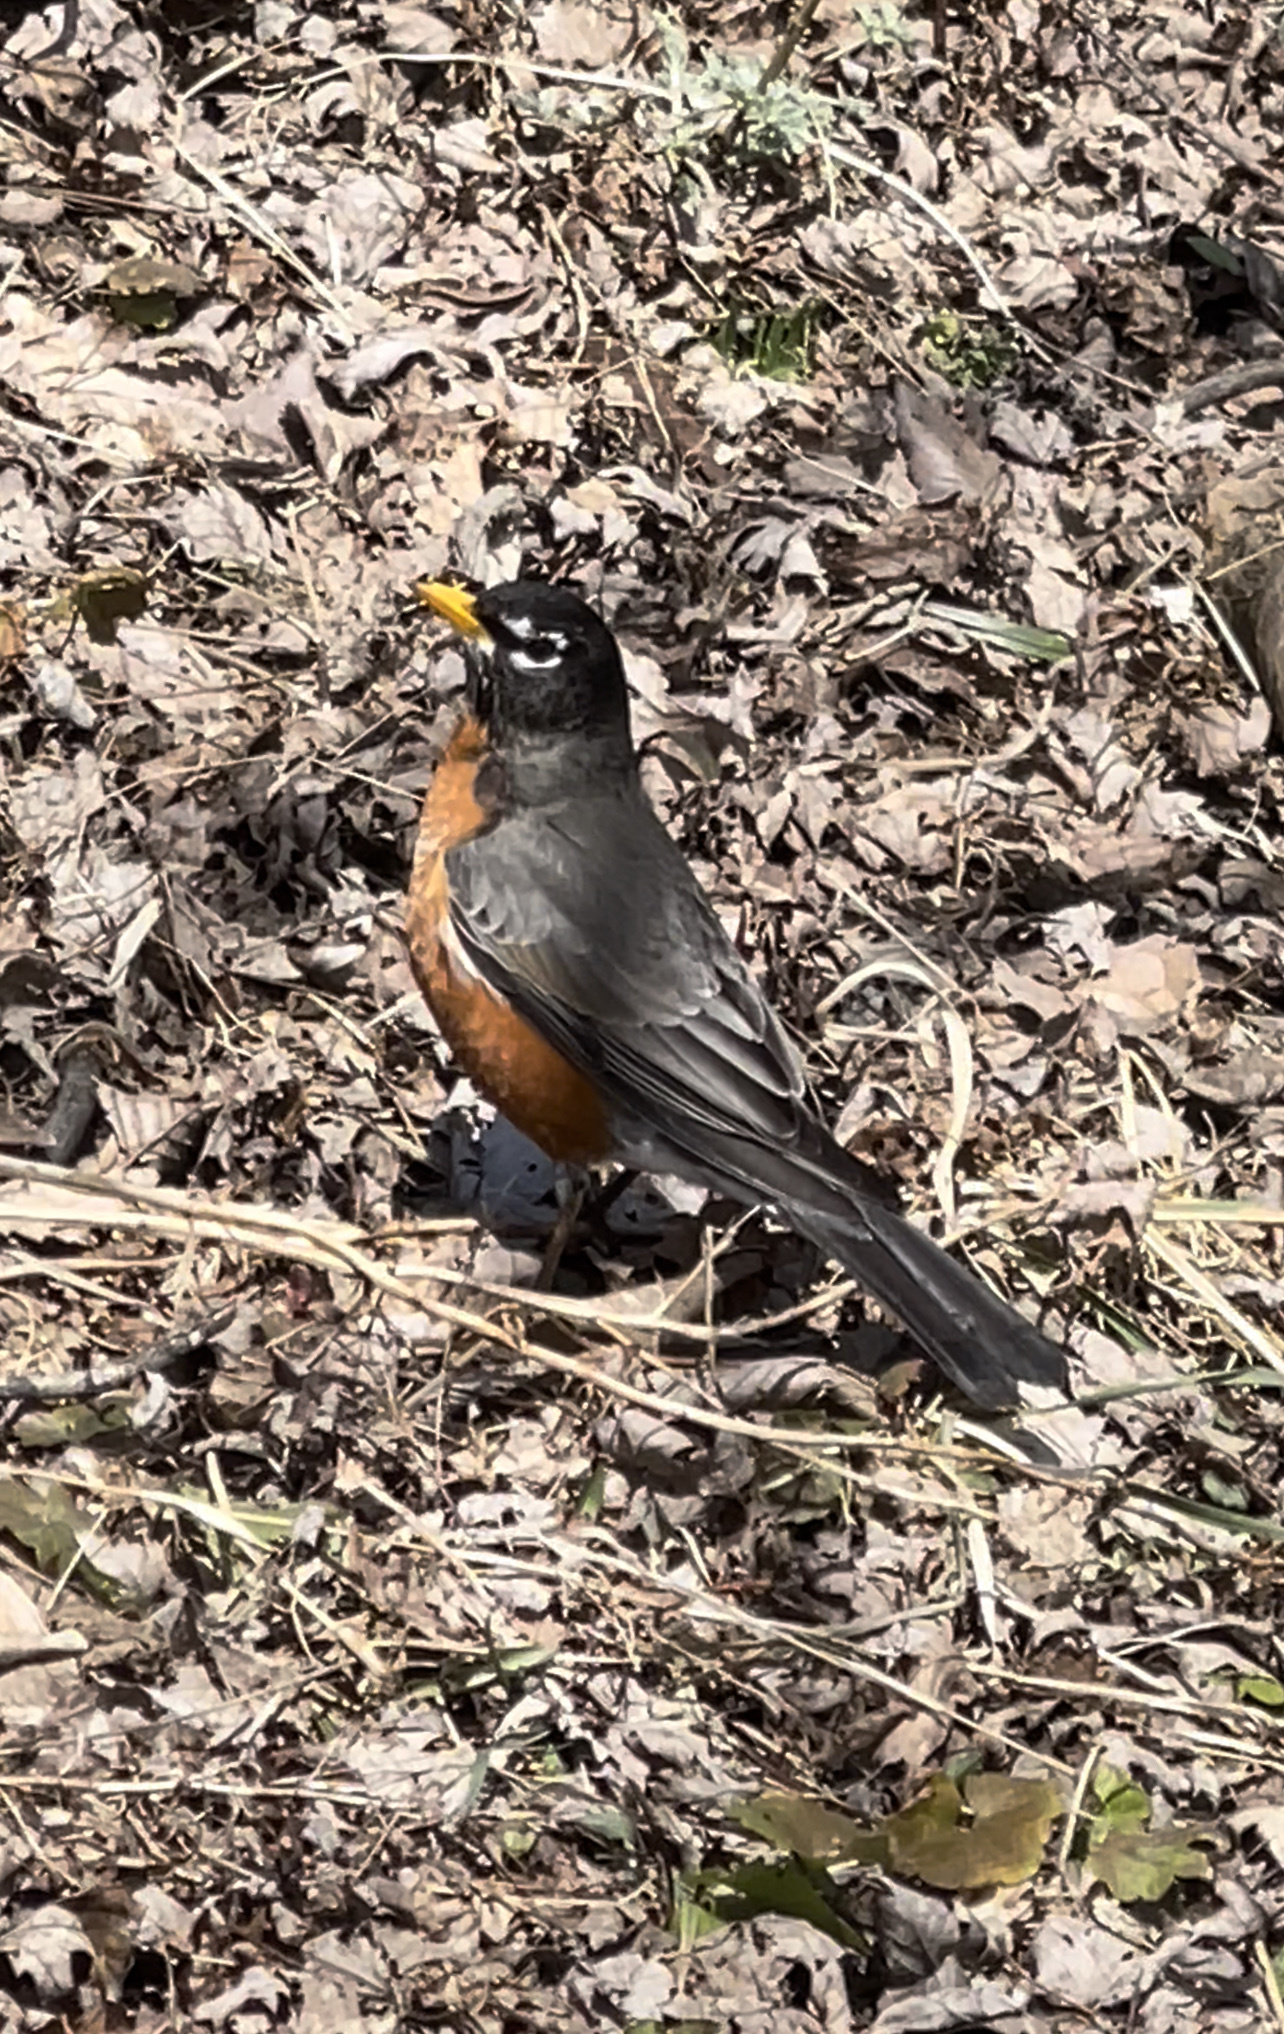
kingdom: Animalia
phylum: Chordata
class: Aves
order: Passeriformes
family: Turdidae
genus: Turdus
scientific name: Turdus migratorius
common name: American robin
